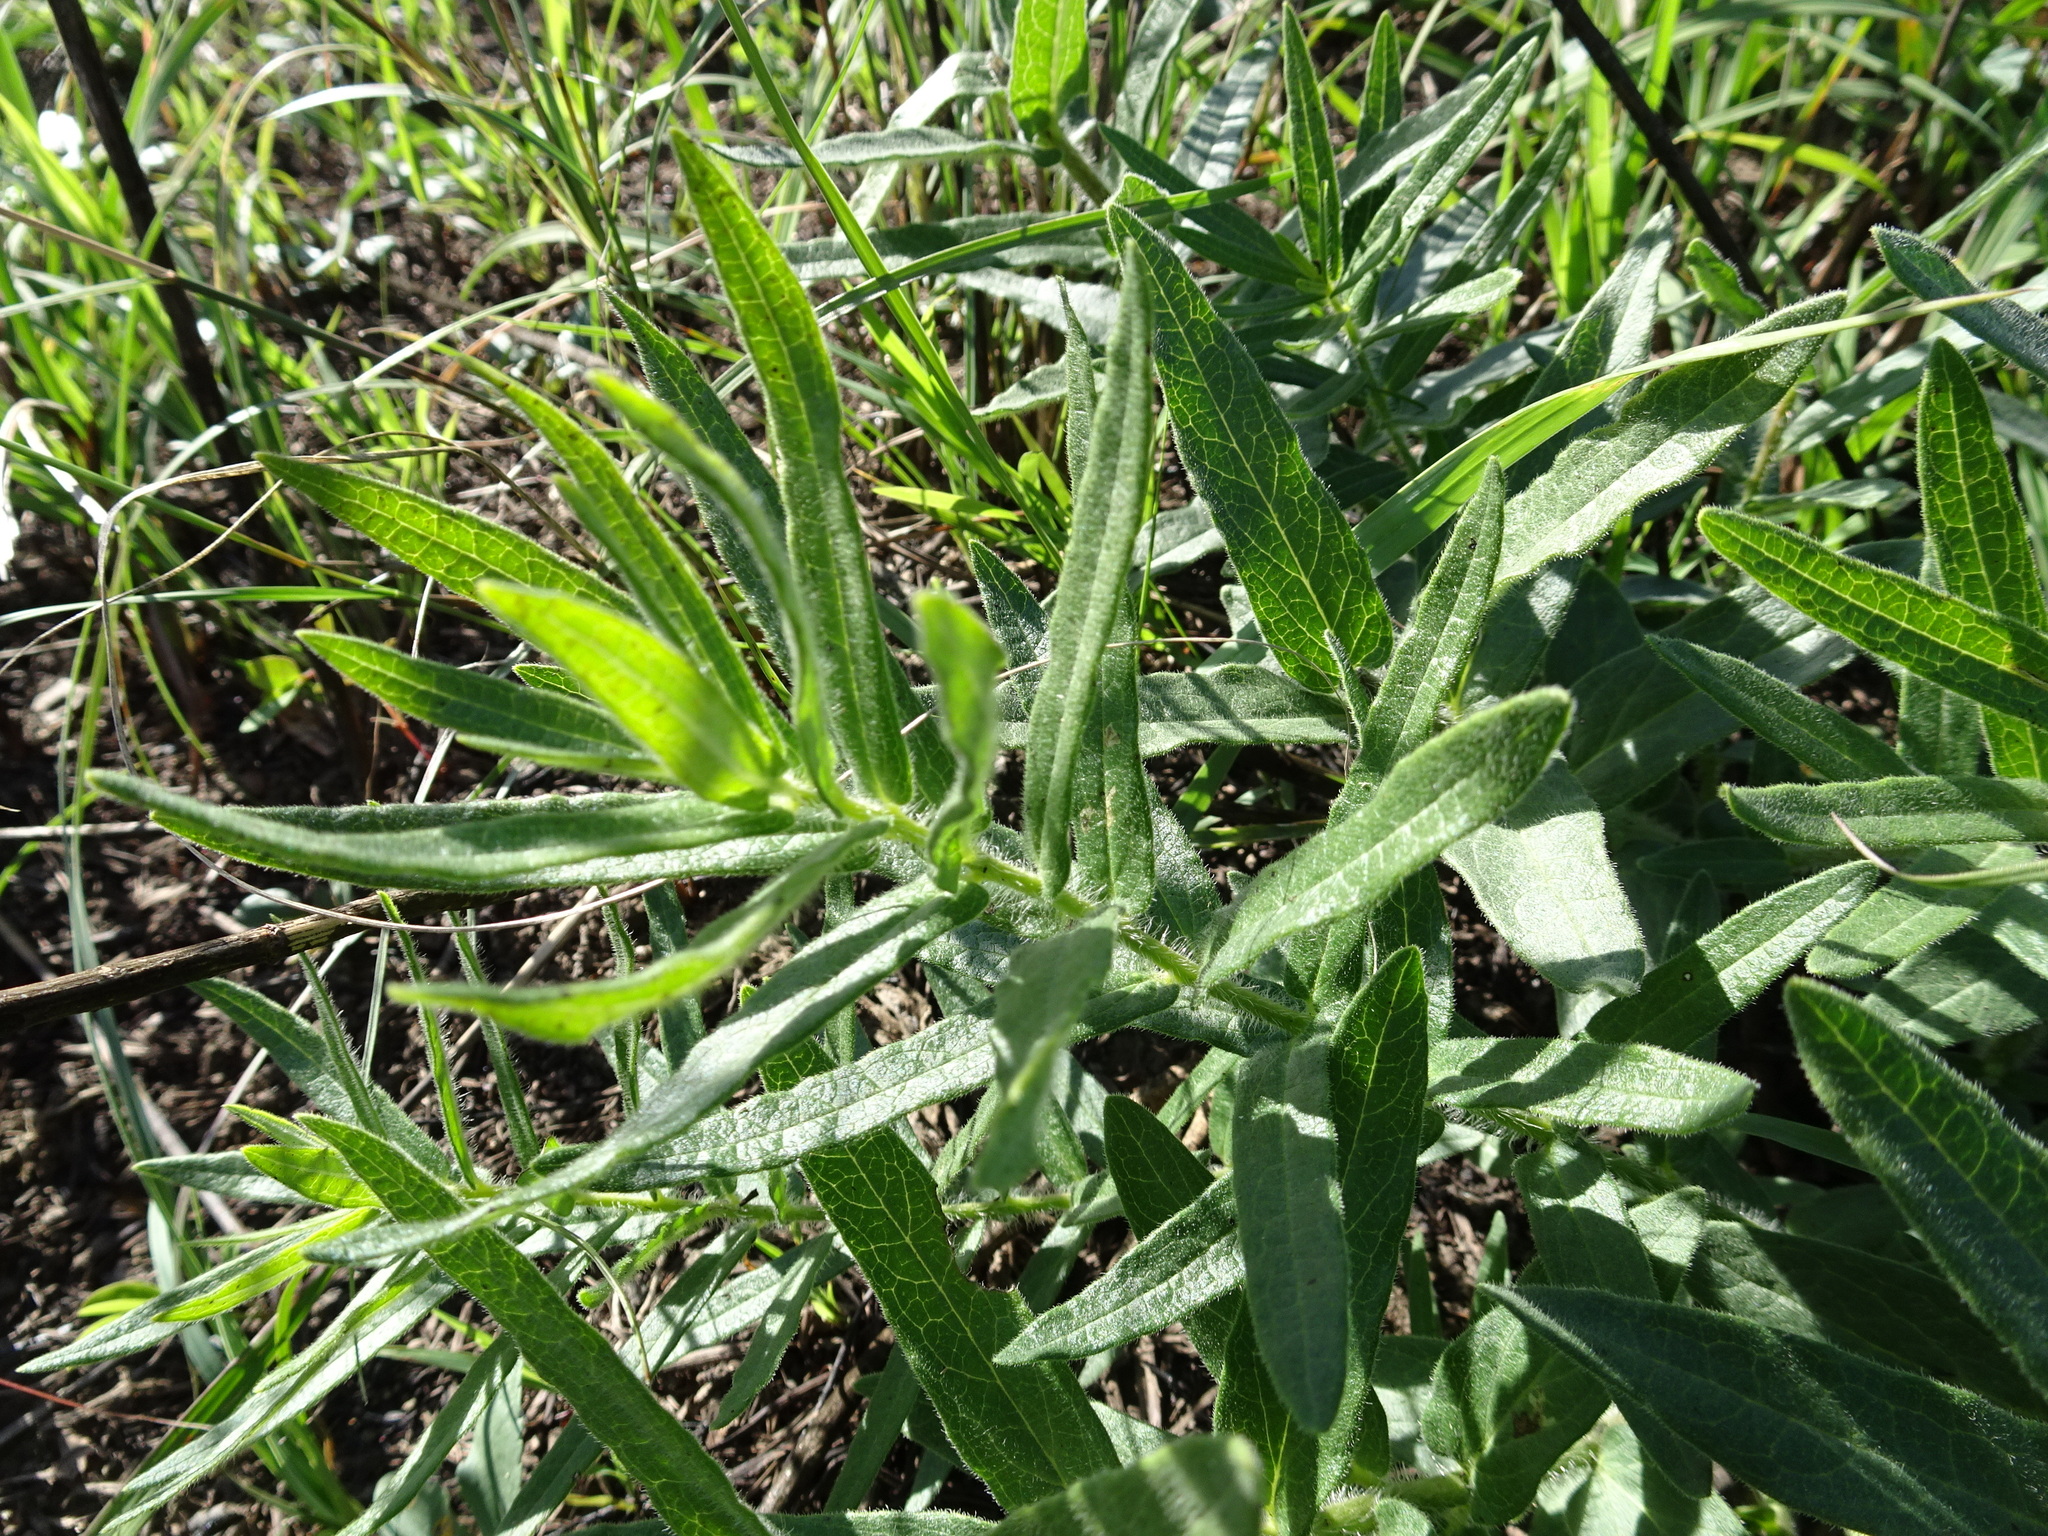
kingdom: Plantae
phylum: Tracheophyta
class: Magnoliopsida
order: Gentianales
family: Apocynaceae
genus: Asclepias
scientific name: Asclepias tuberosa
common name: Butterfly milkweed
